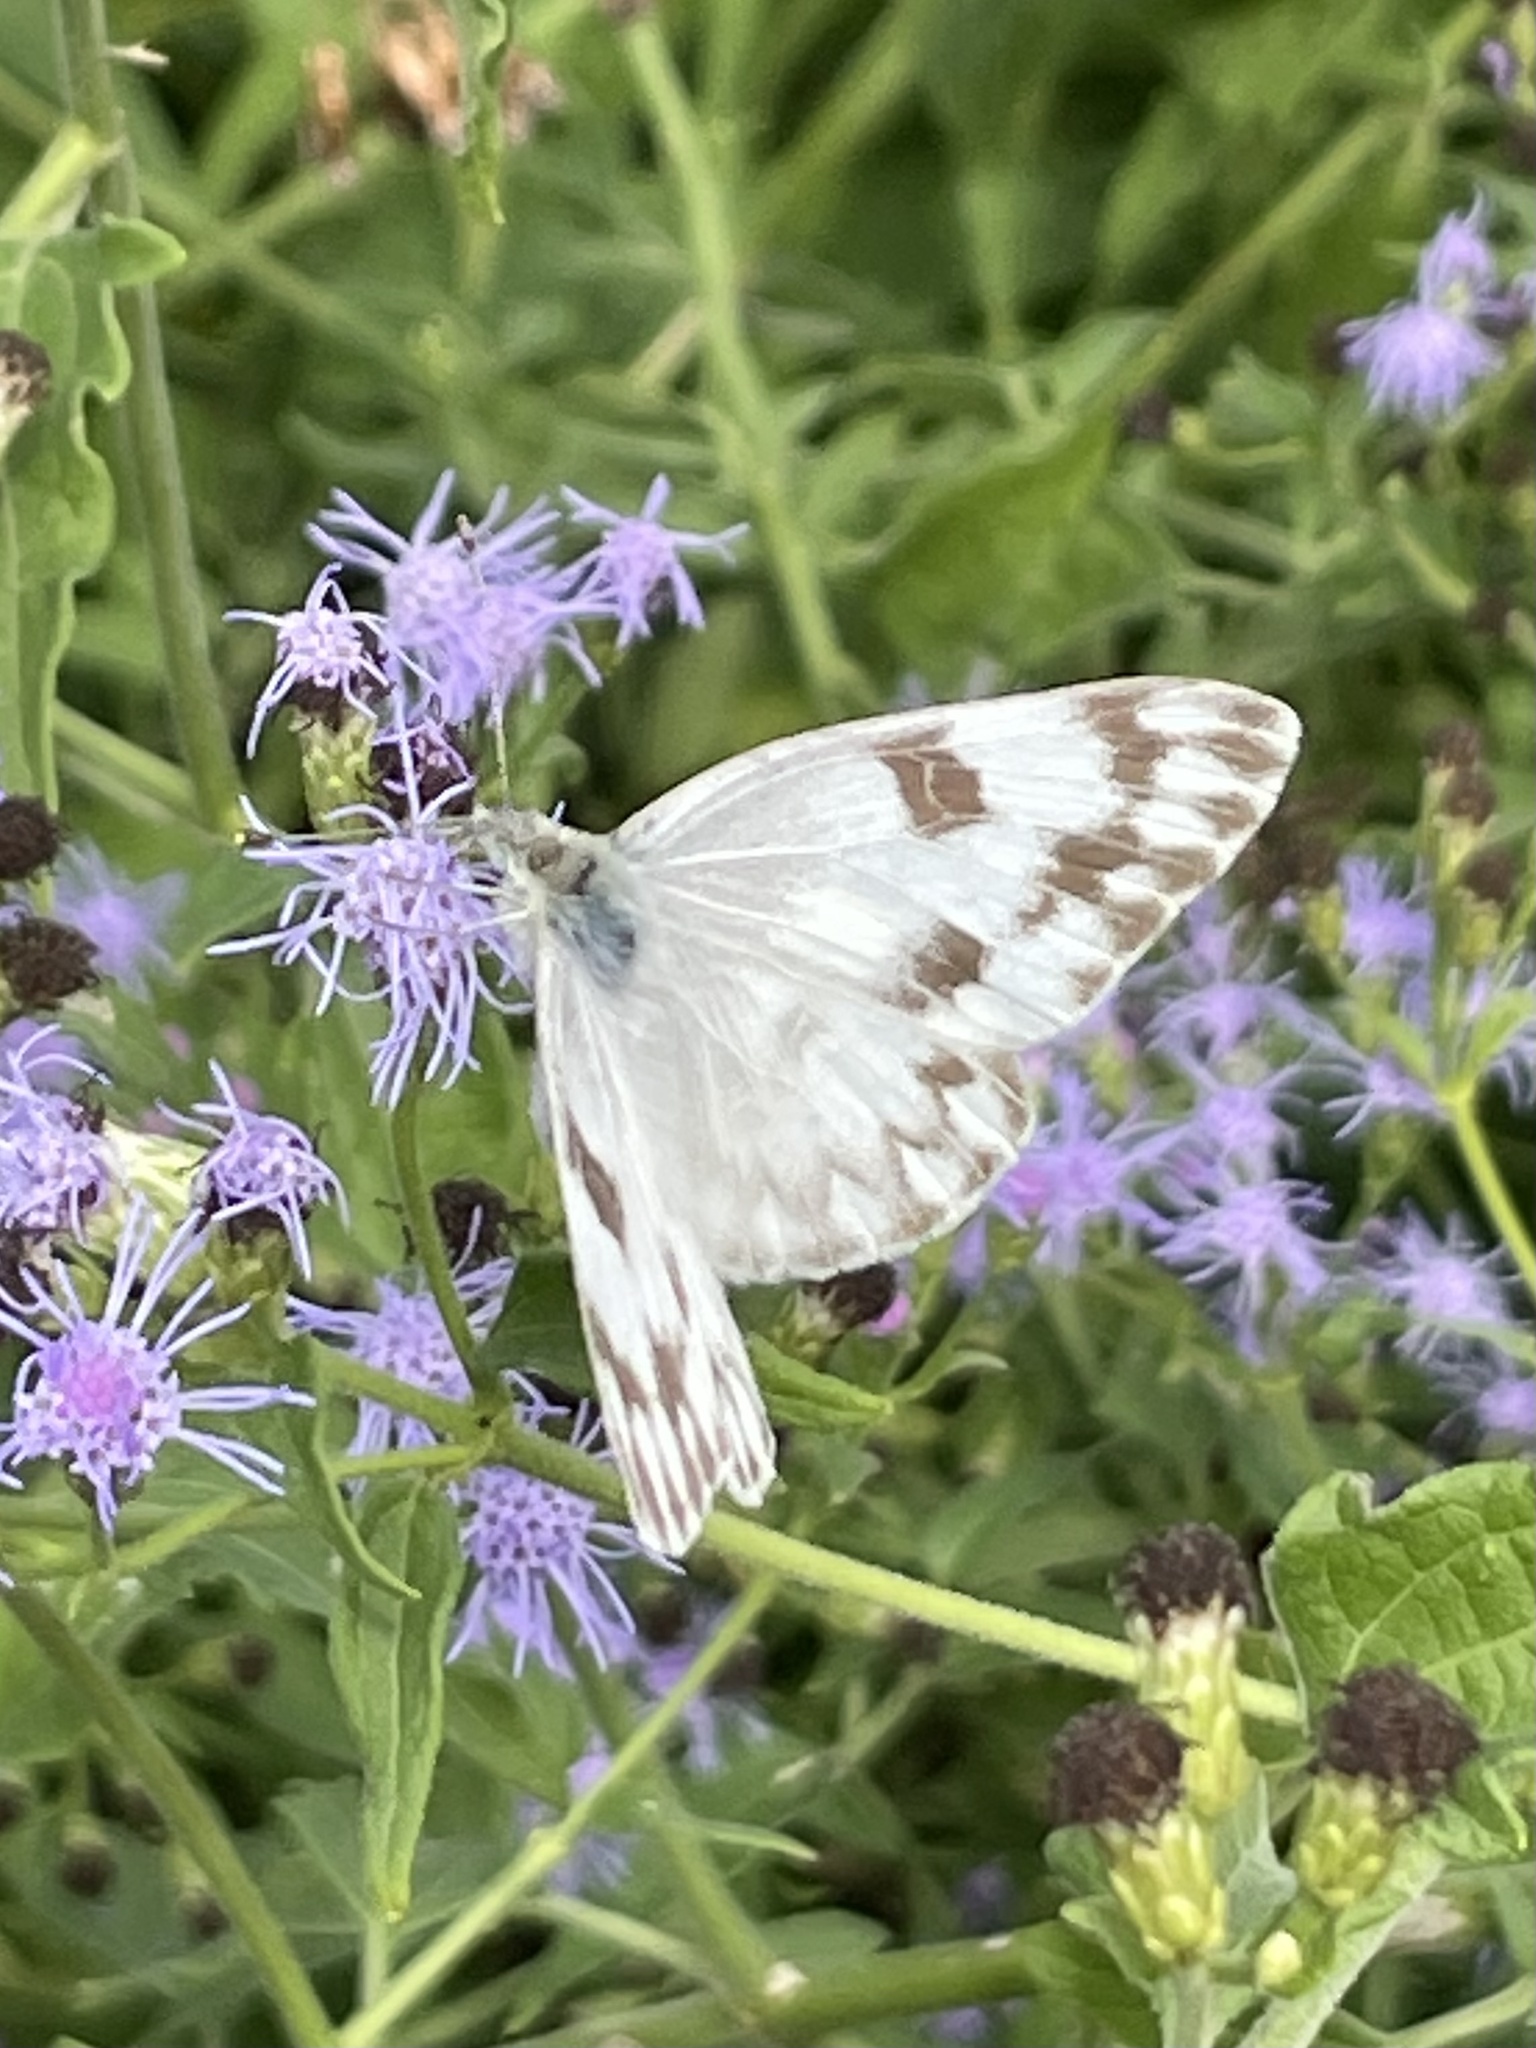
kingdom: Animalia
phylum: Arthropoda
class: Insecta
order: Lepidoptera
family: Pieridae
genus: Pontia
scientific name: Pontia protodice
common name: Checkered white
